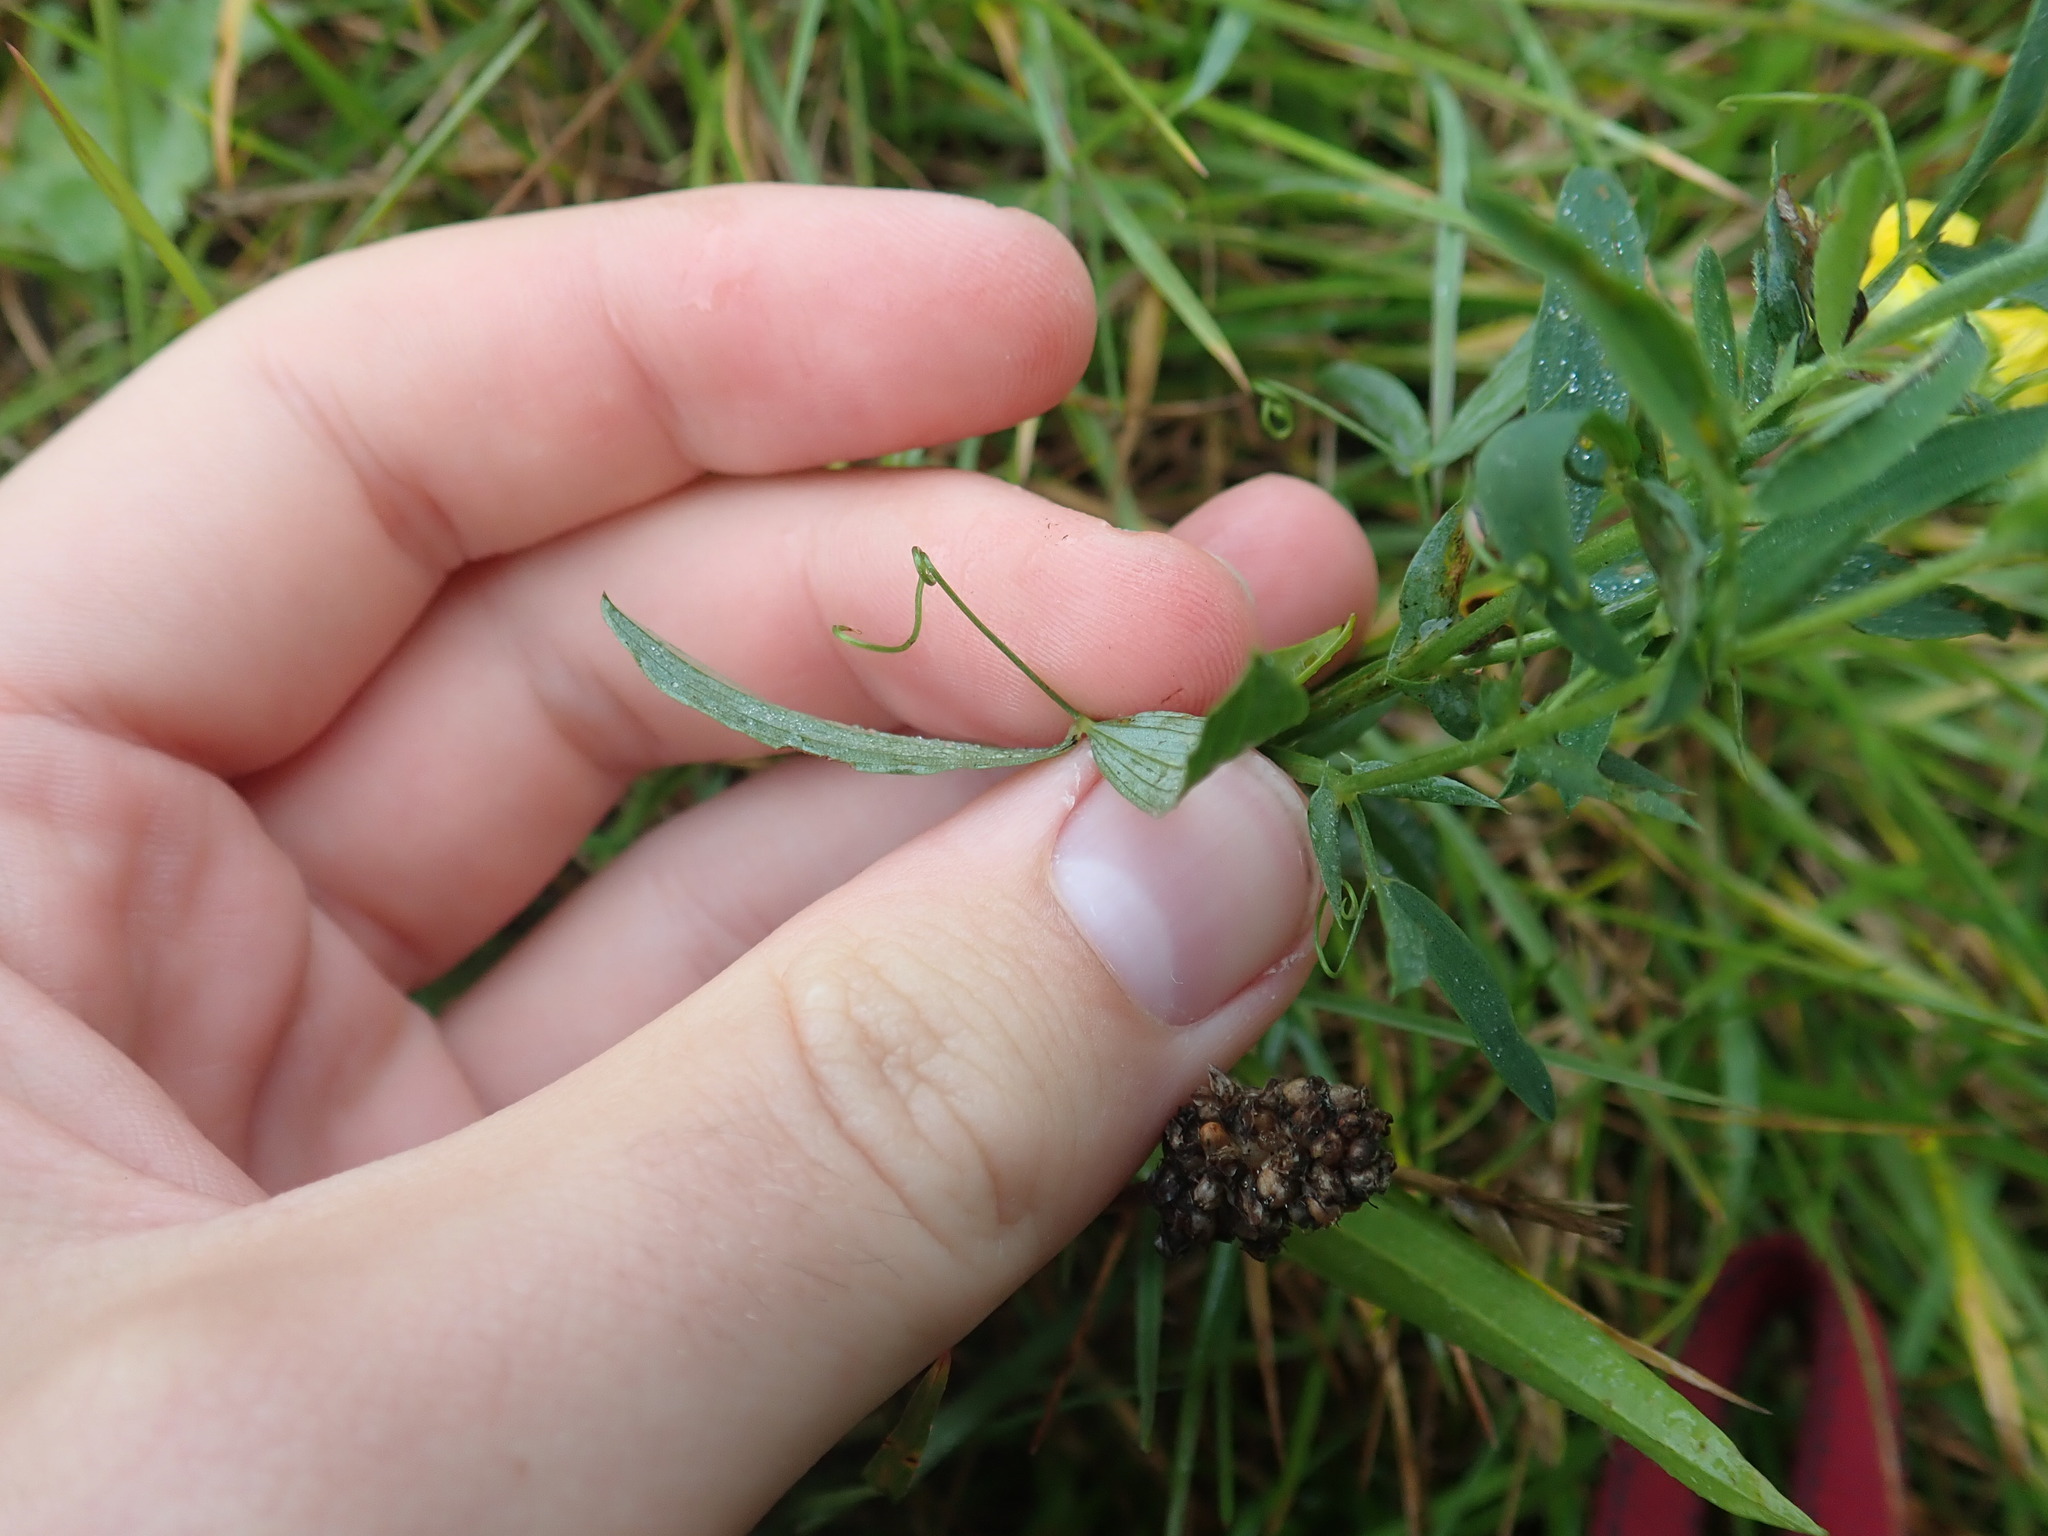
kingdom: Plantae
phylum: Tracheophyta
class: Magnoliopsida
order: Fabales
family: Fabaceae
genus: Lathyrus
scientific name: Lathyrus pratensis
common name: Meadow vetchling
